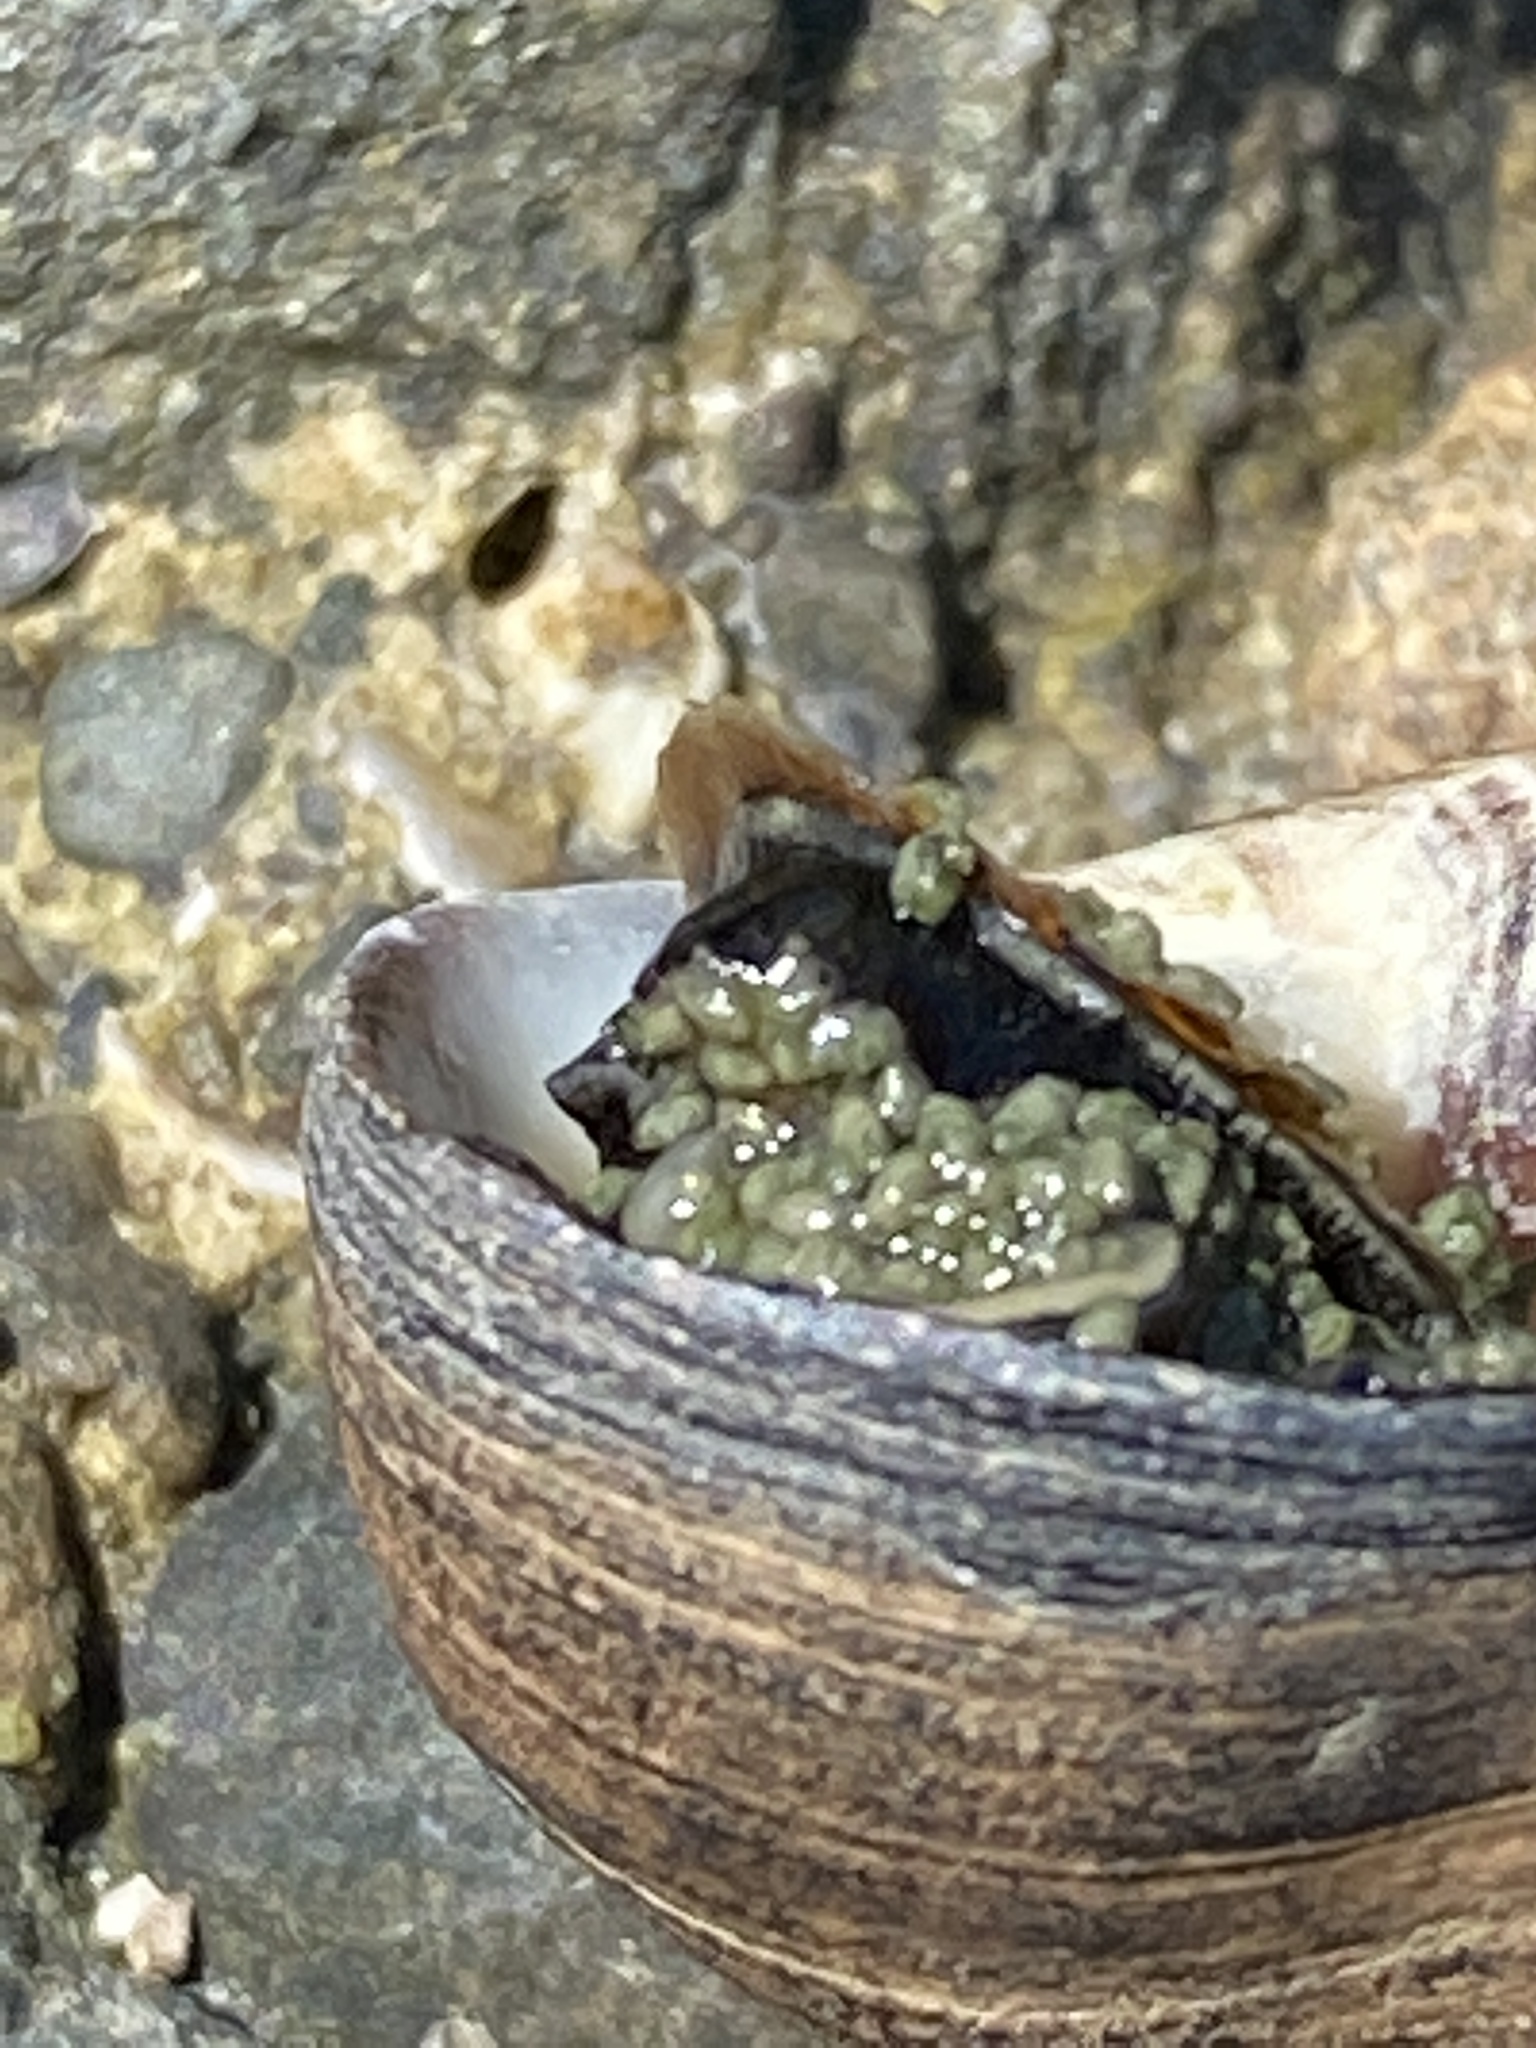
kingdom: Animalia
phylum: Mollusca
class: Gastropoda
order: Littorinimorpha
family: Littorinidae
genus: Littorina
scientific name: Littorina littorea
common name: Common periwinkle
